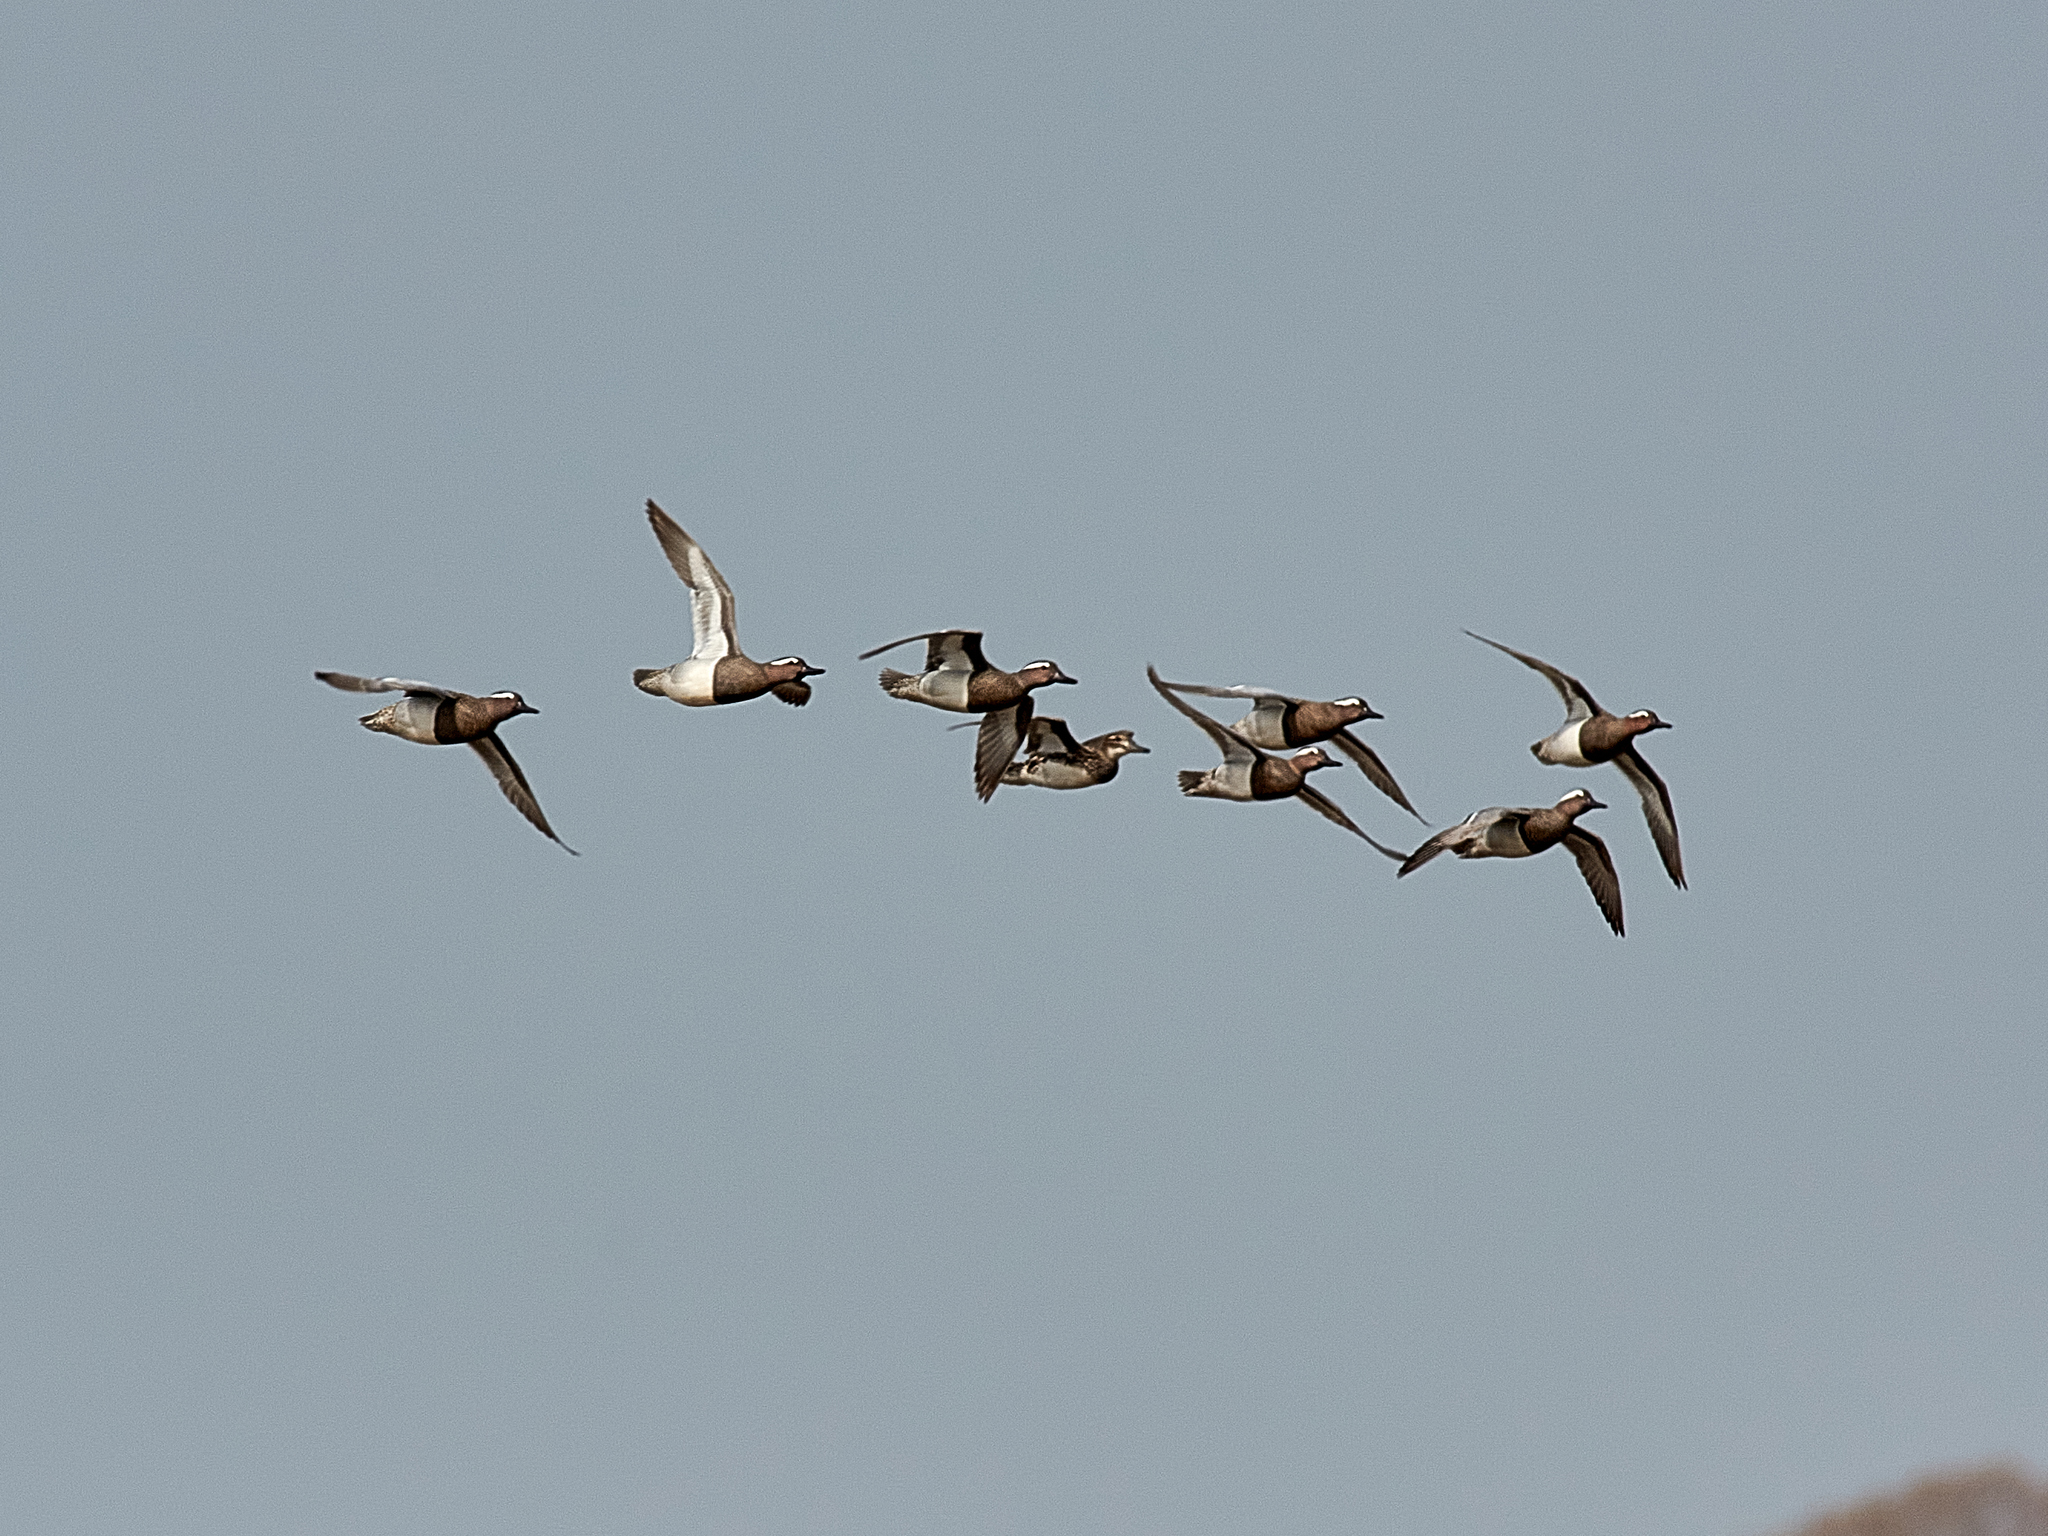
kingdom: Animalia
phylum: Chordata
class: Aves
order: Anseriformes
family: Anatidae
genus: Spatula
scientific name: Spatula querquedula
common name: Garganey
